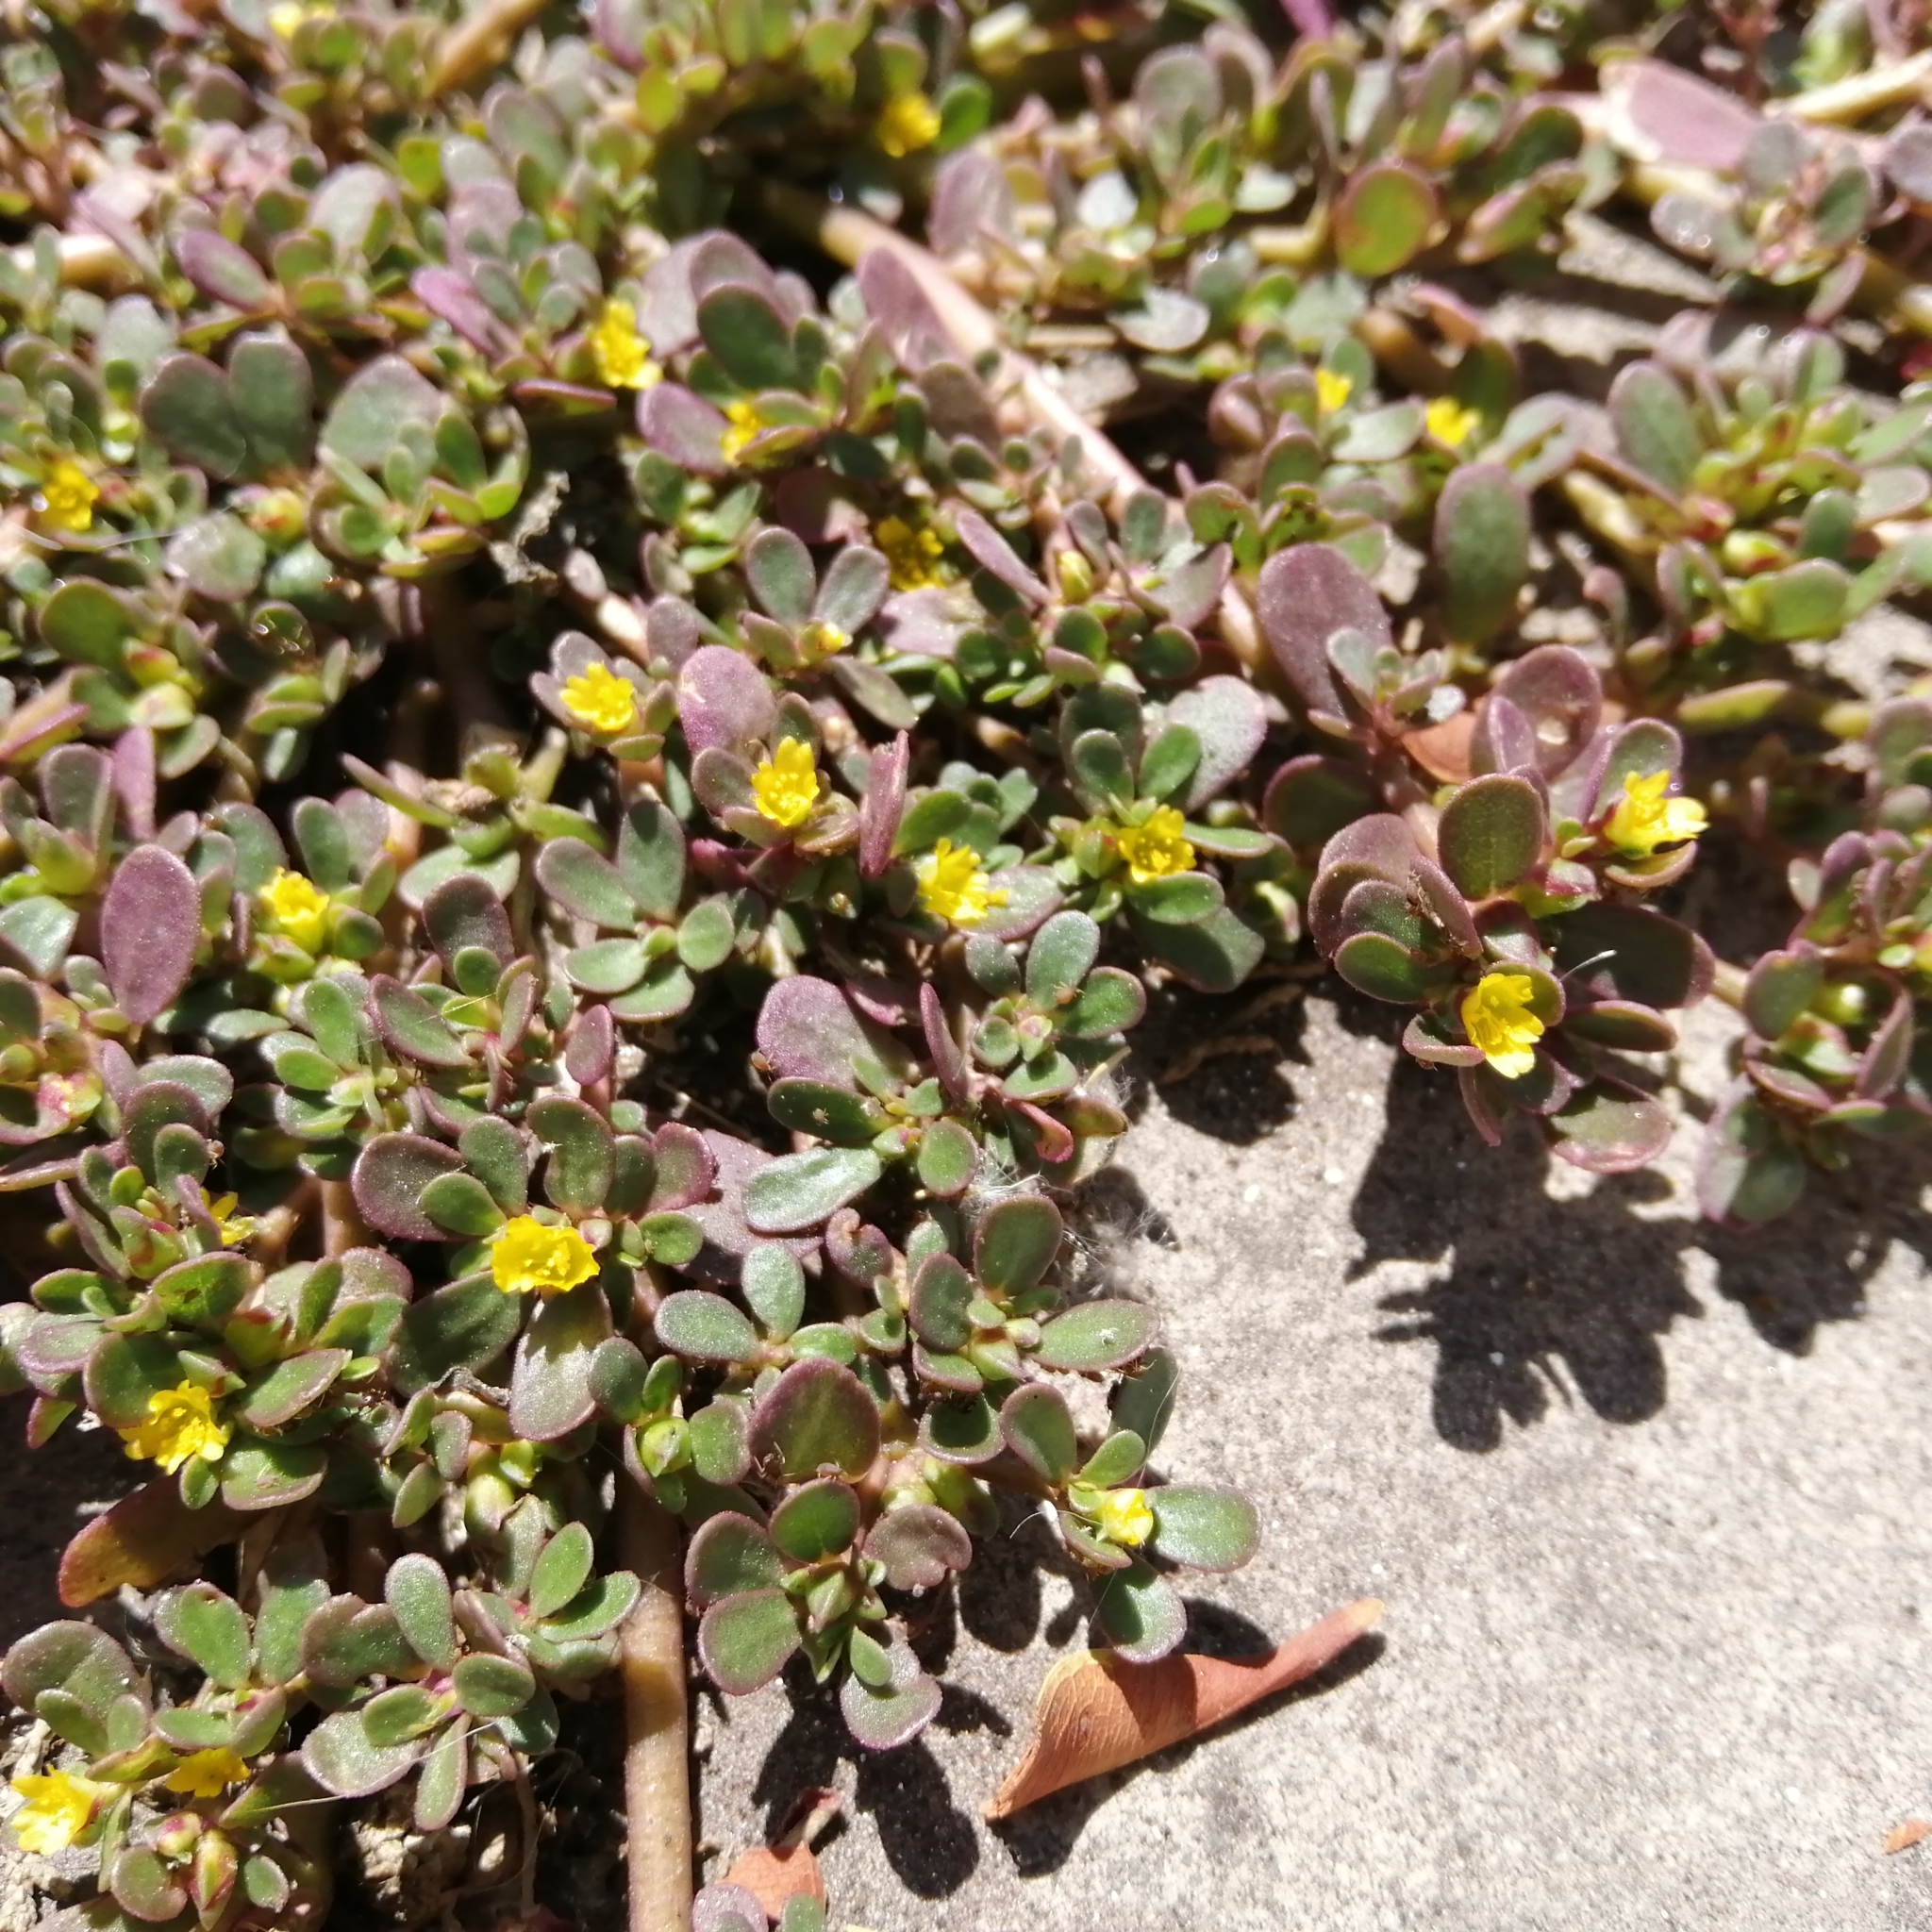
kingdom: Plantae
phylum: Tracheophyta
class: Magnoliopsida
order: Caryophyllales
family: Portulacaceae
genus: Portulaca
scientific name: Portulaca oleracea
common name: Common purslane
